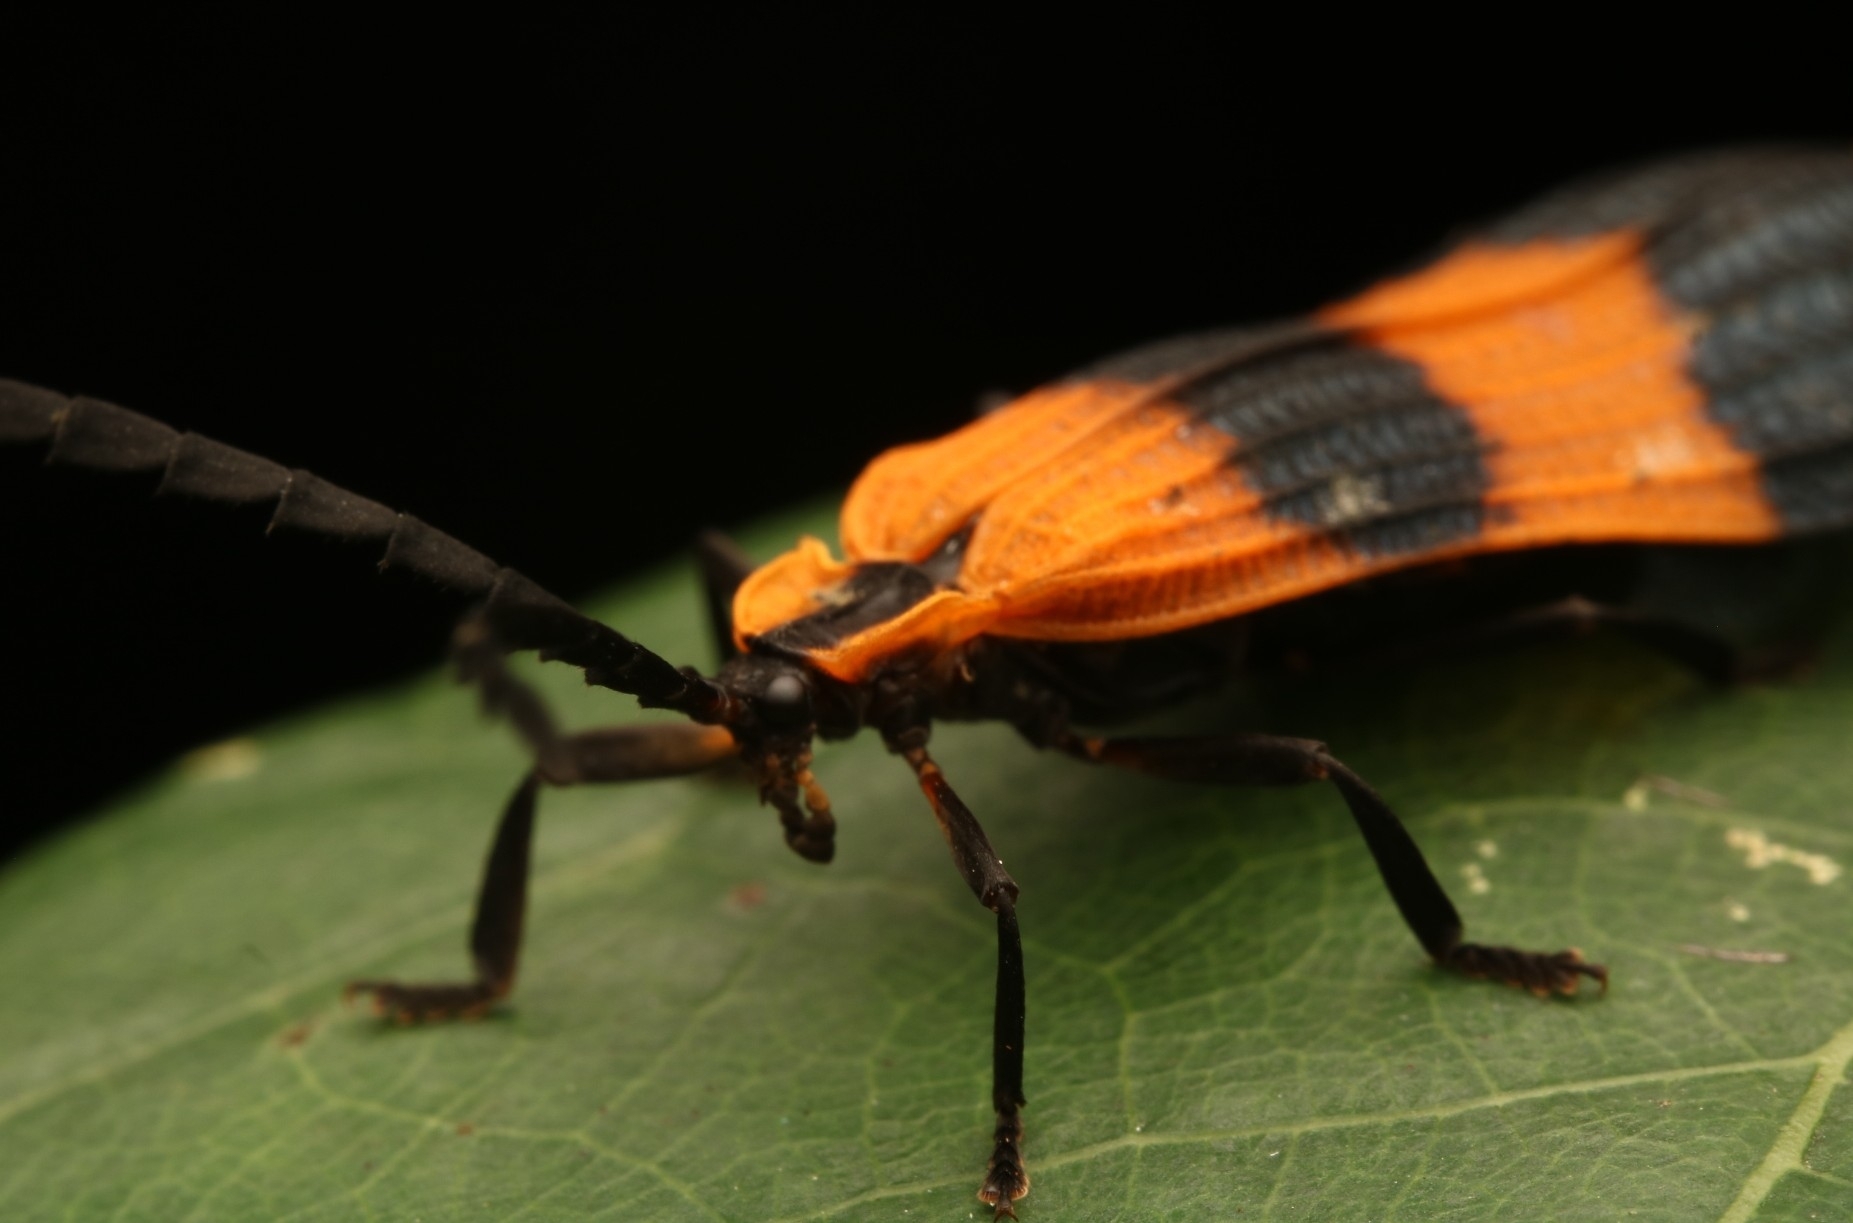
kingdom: Animalia
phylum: Arthropoda
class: Insecta
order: Coleoptera
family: Lycidae
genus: Calopteron
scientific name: Calopteron terminale
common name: End band net-winged beetle
